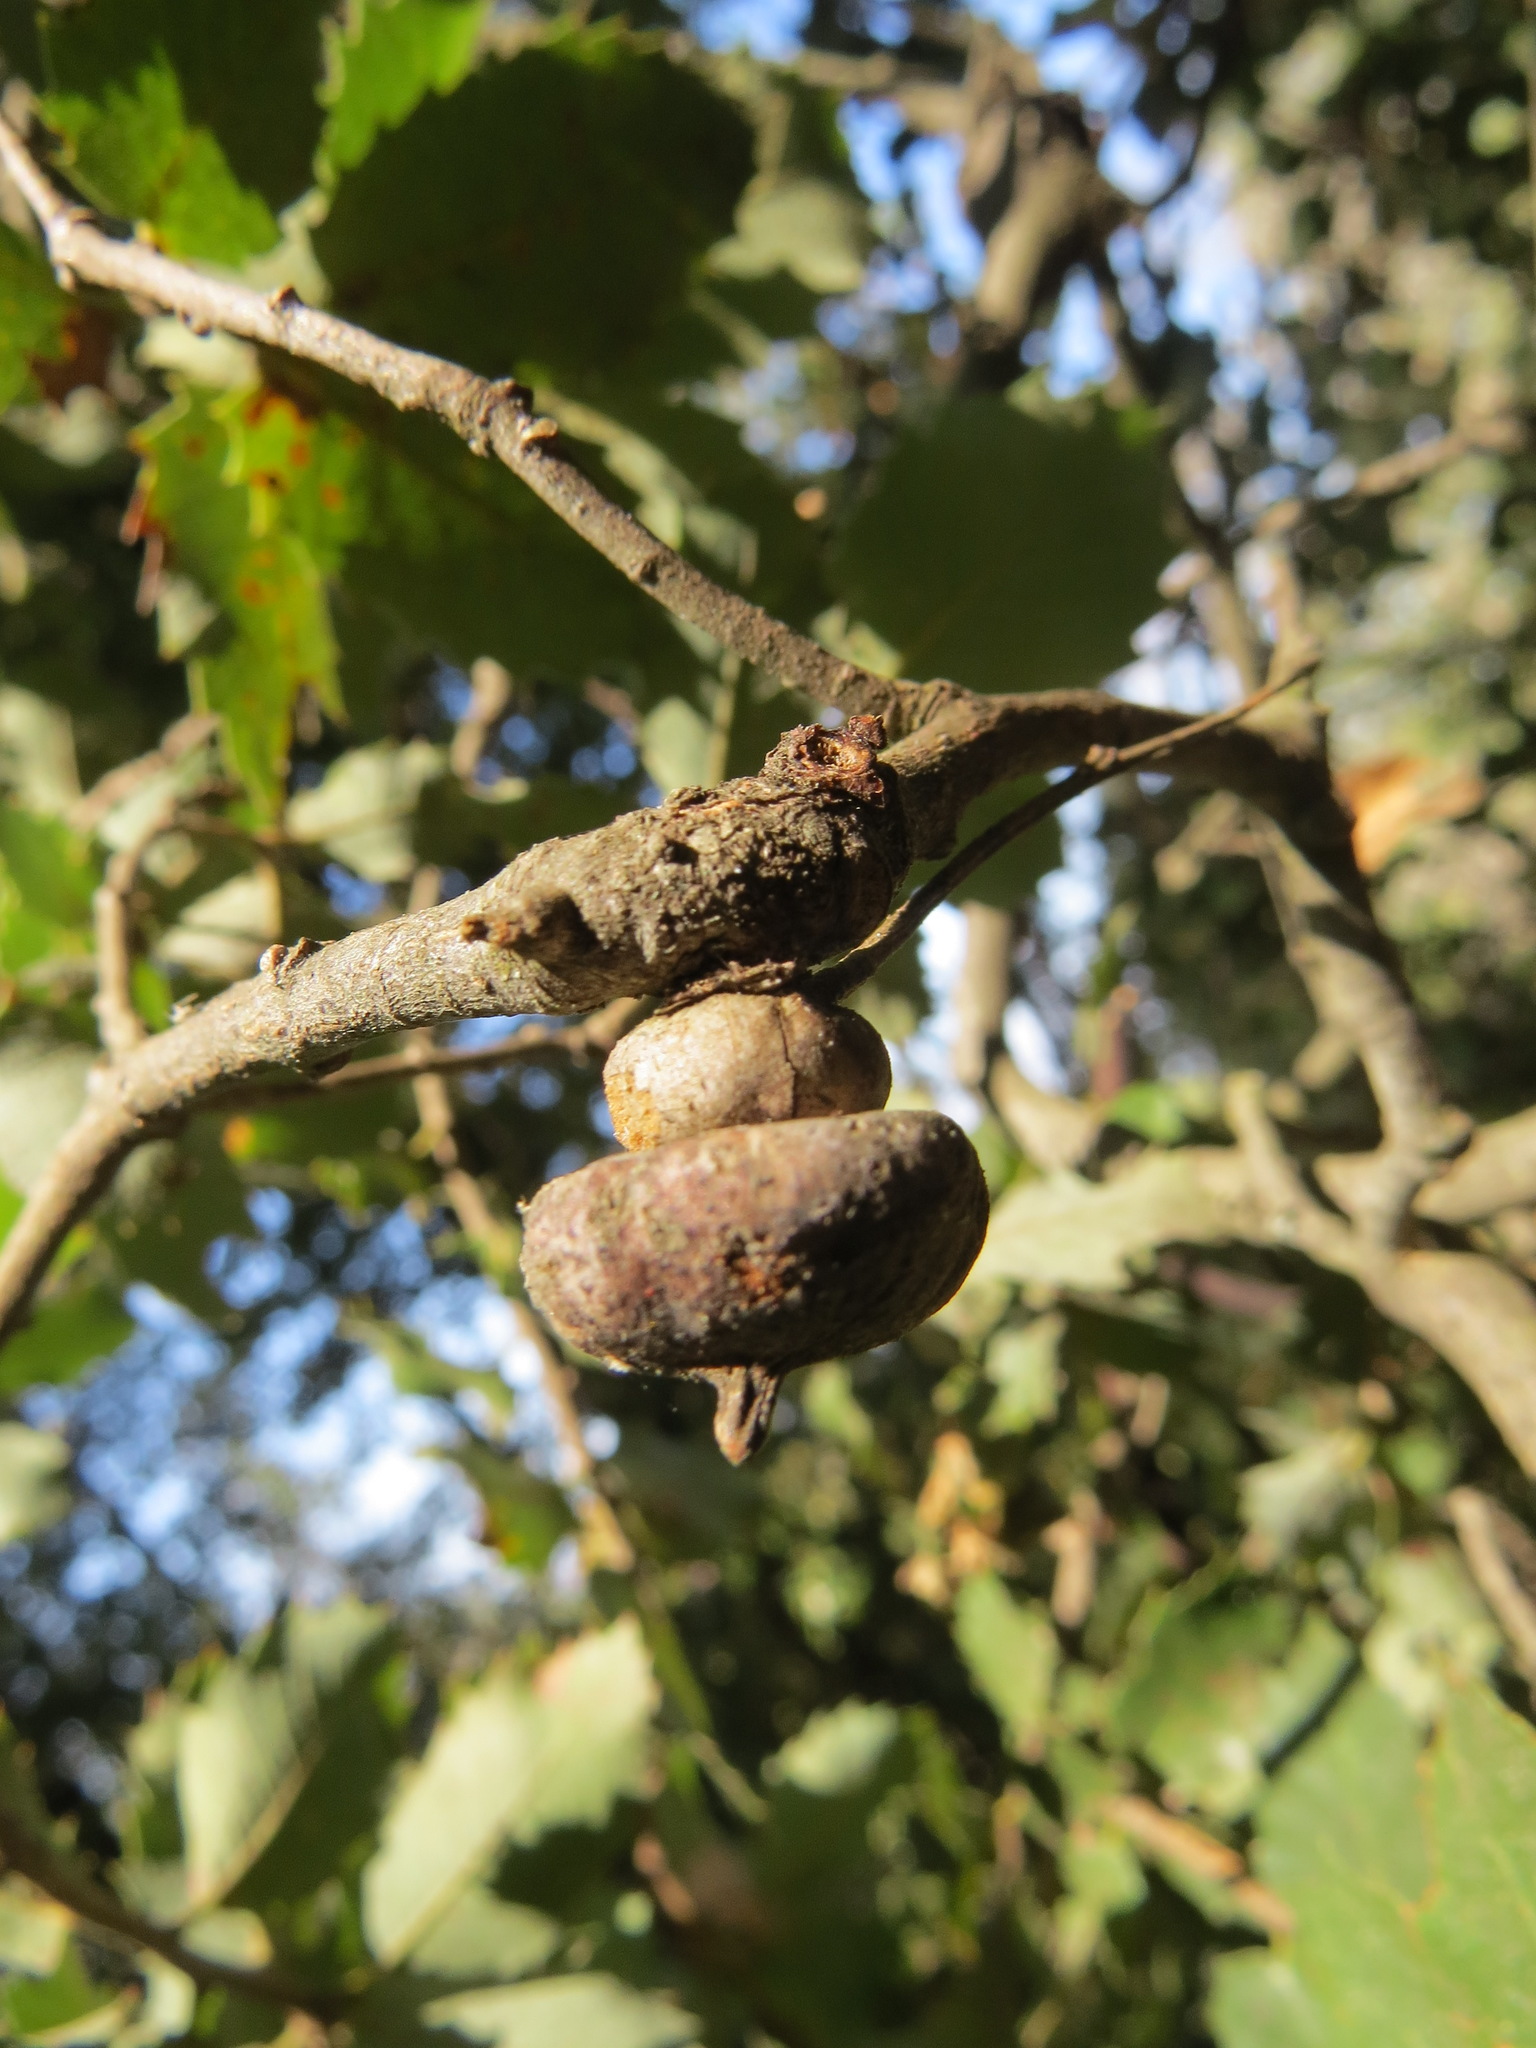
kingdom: Animalia
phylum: Arthropoda
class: Insecta
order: Hymenoptera
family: Cynipidae
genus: Heteroecus
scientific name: Heteroecus
